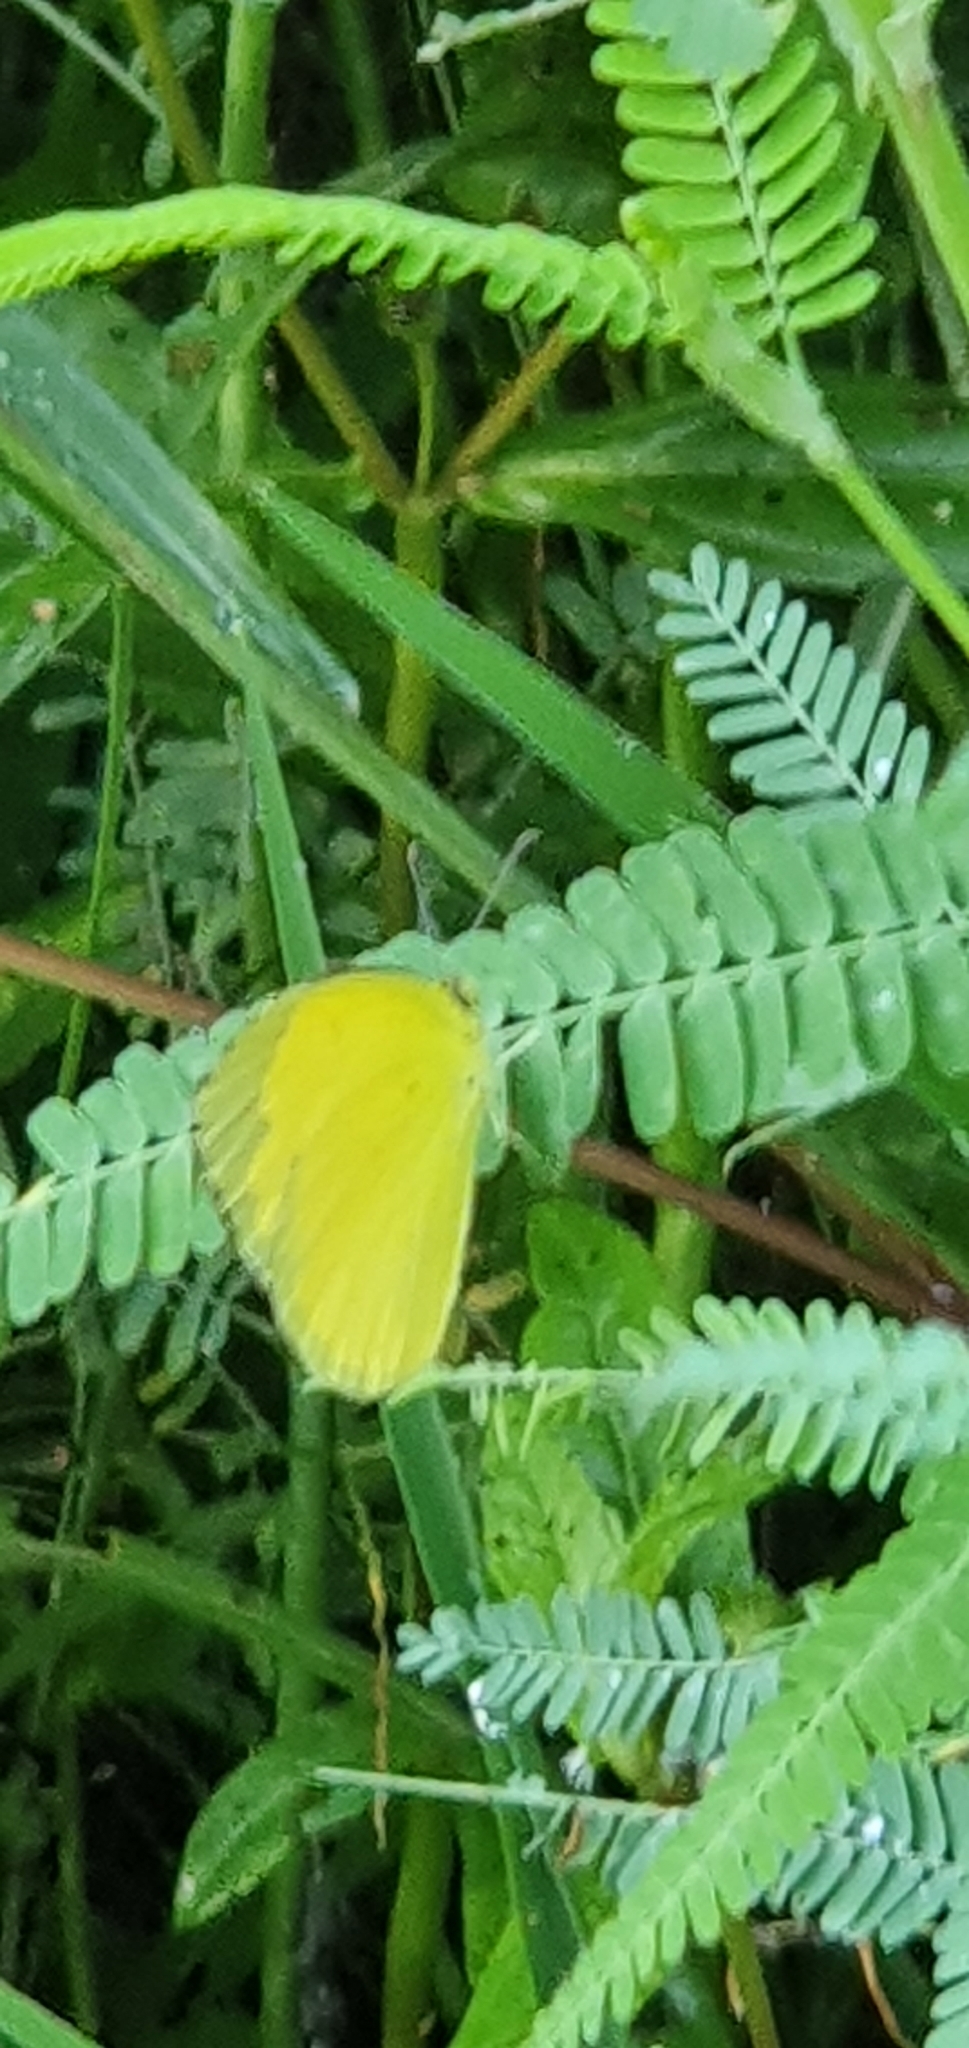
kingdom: Animalia
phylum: Arthropoda
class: Insecta
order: Lepidoptera
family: Pieridae
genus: Eurema
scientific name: Eurema
